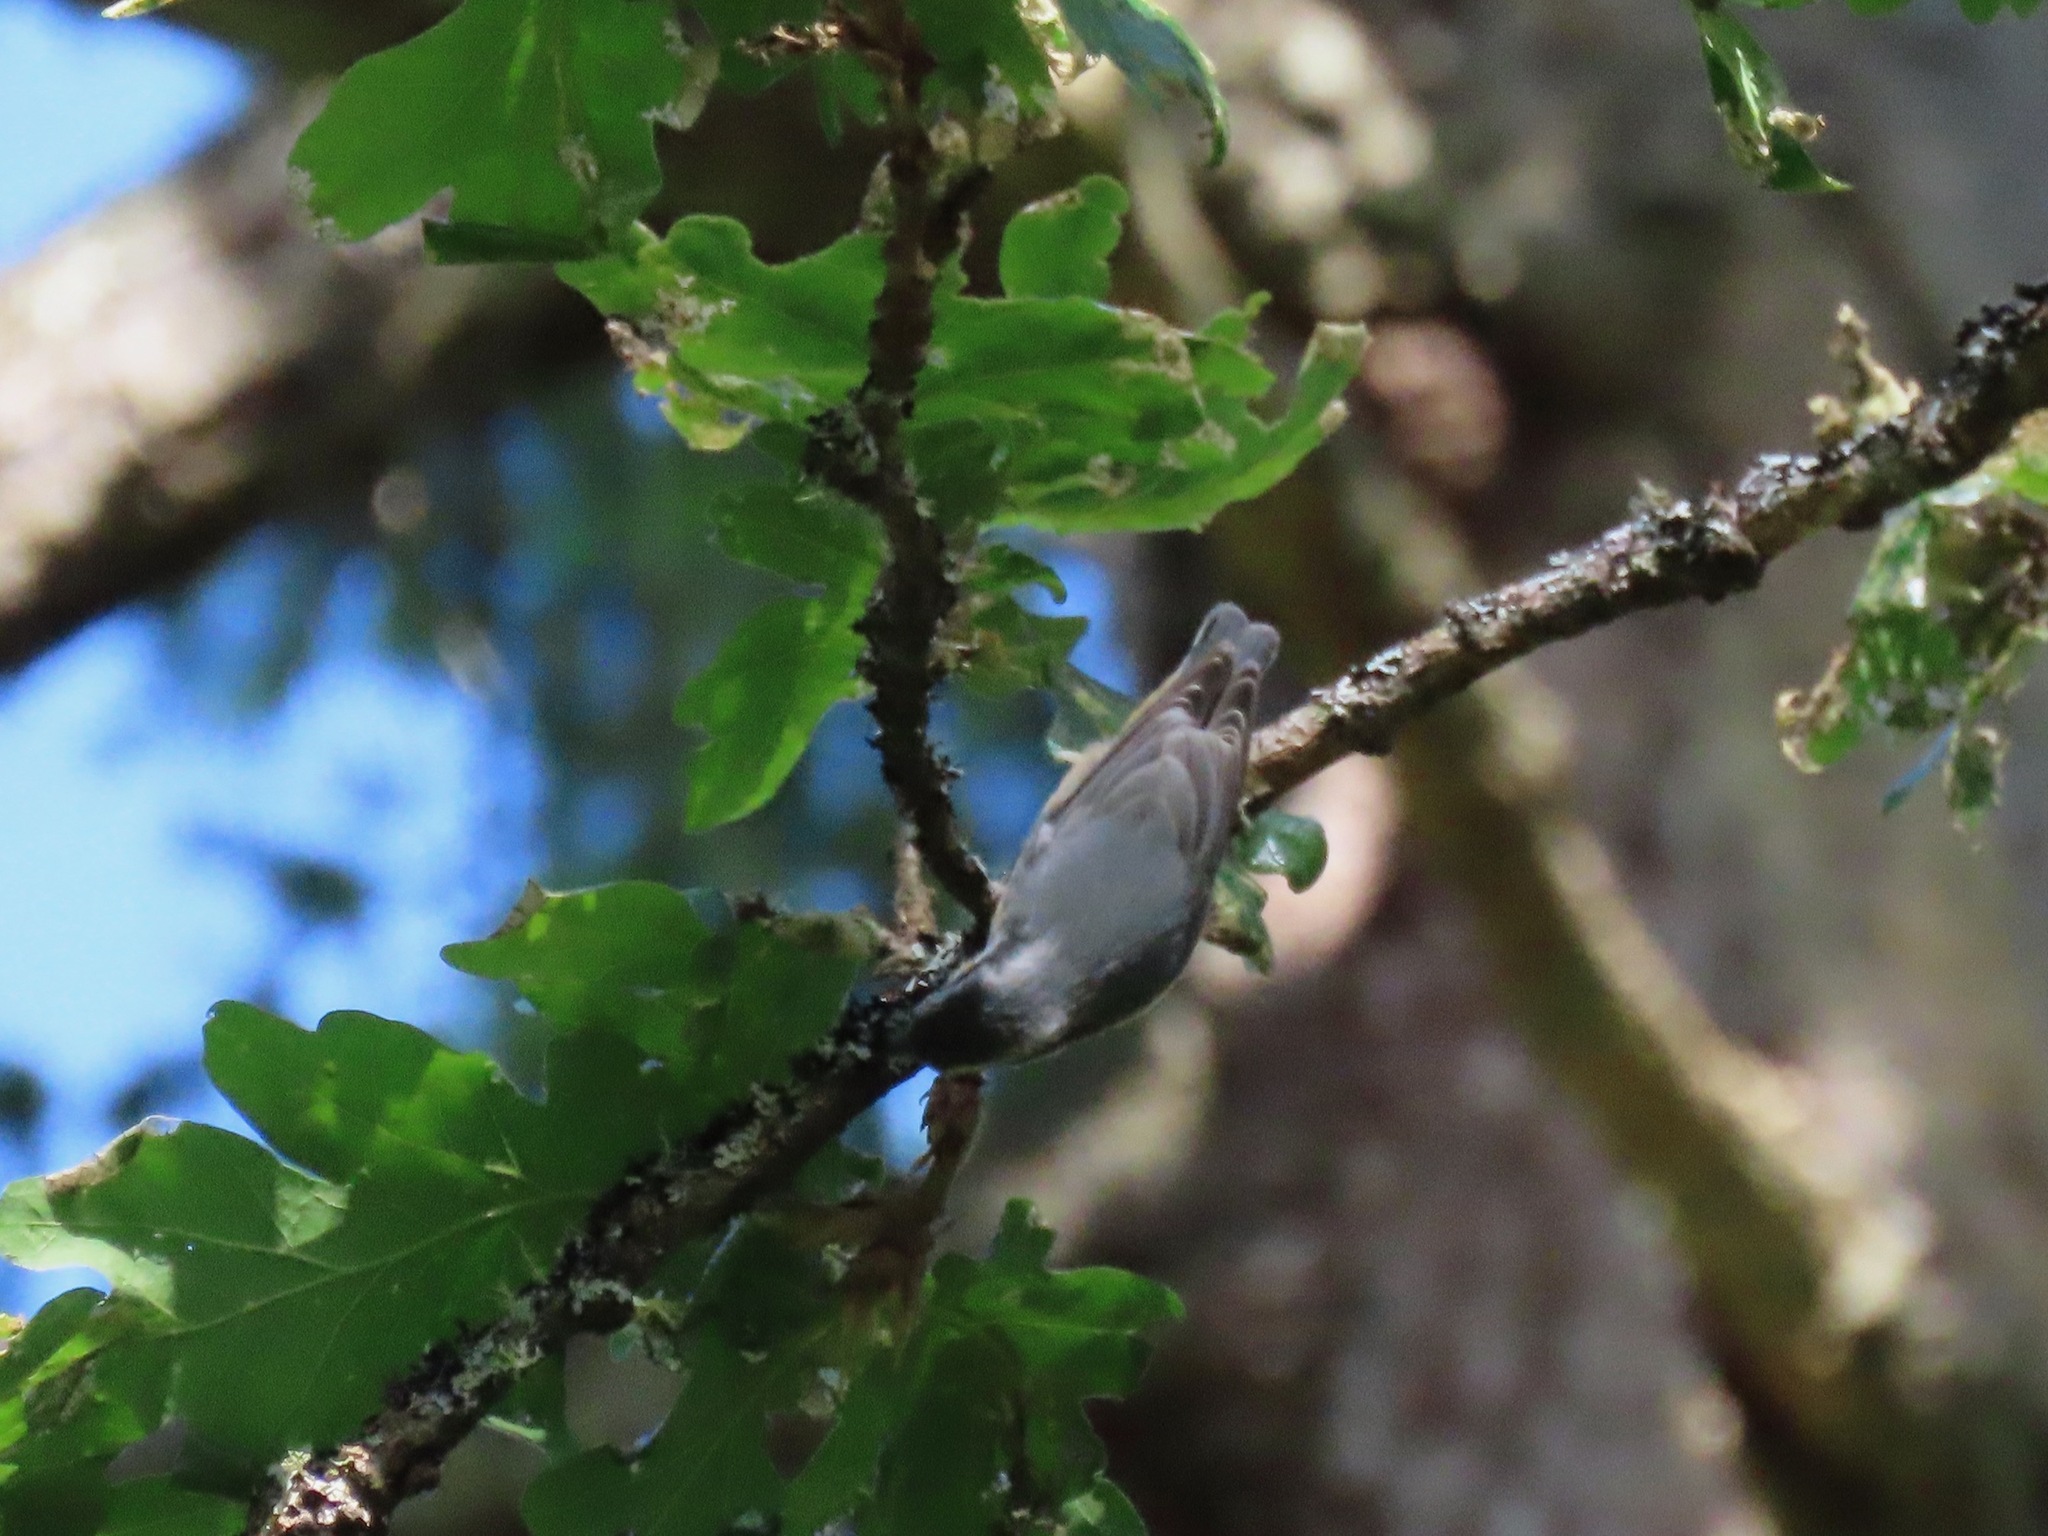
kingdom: Animalia
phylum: Chordata
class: Aves
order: Passeriformes
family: Sittidae
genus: Sitta
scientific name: Sitta canadensis
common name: Red-breasted nuthatch
